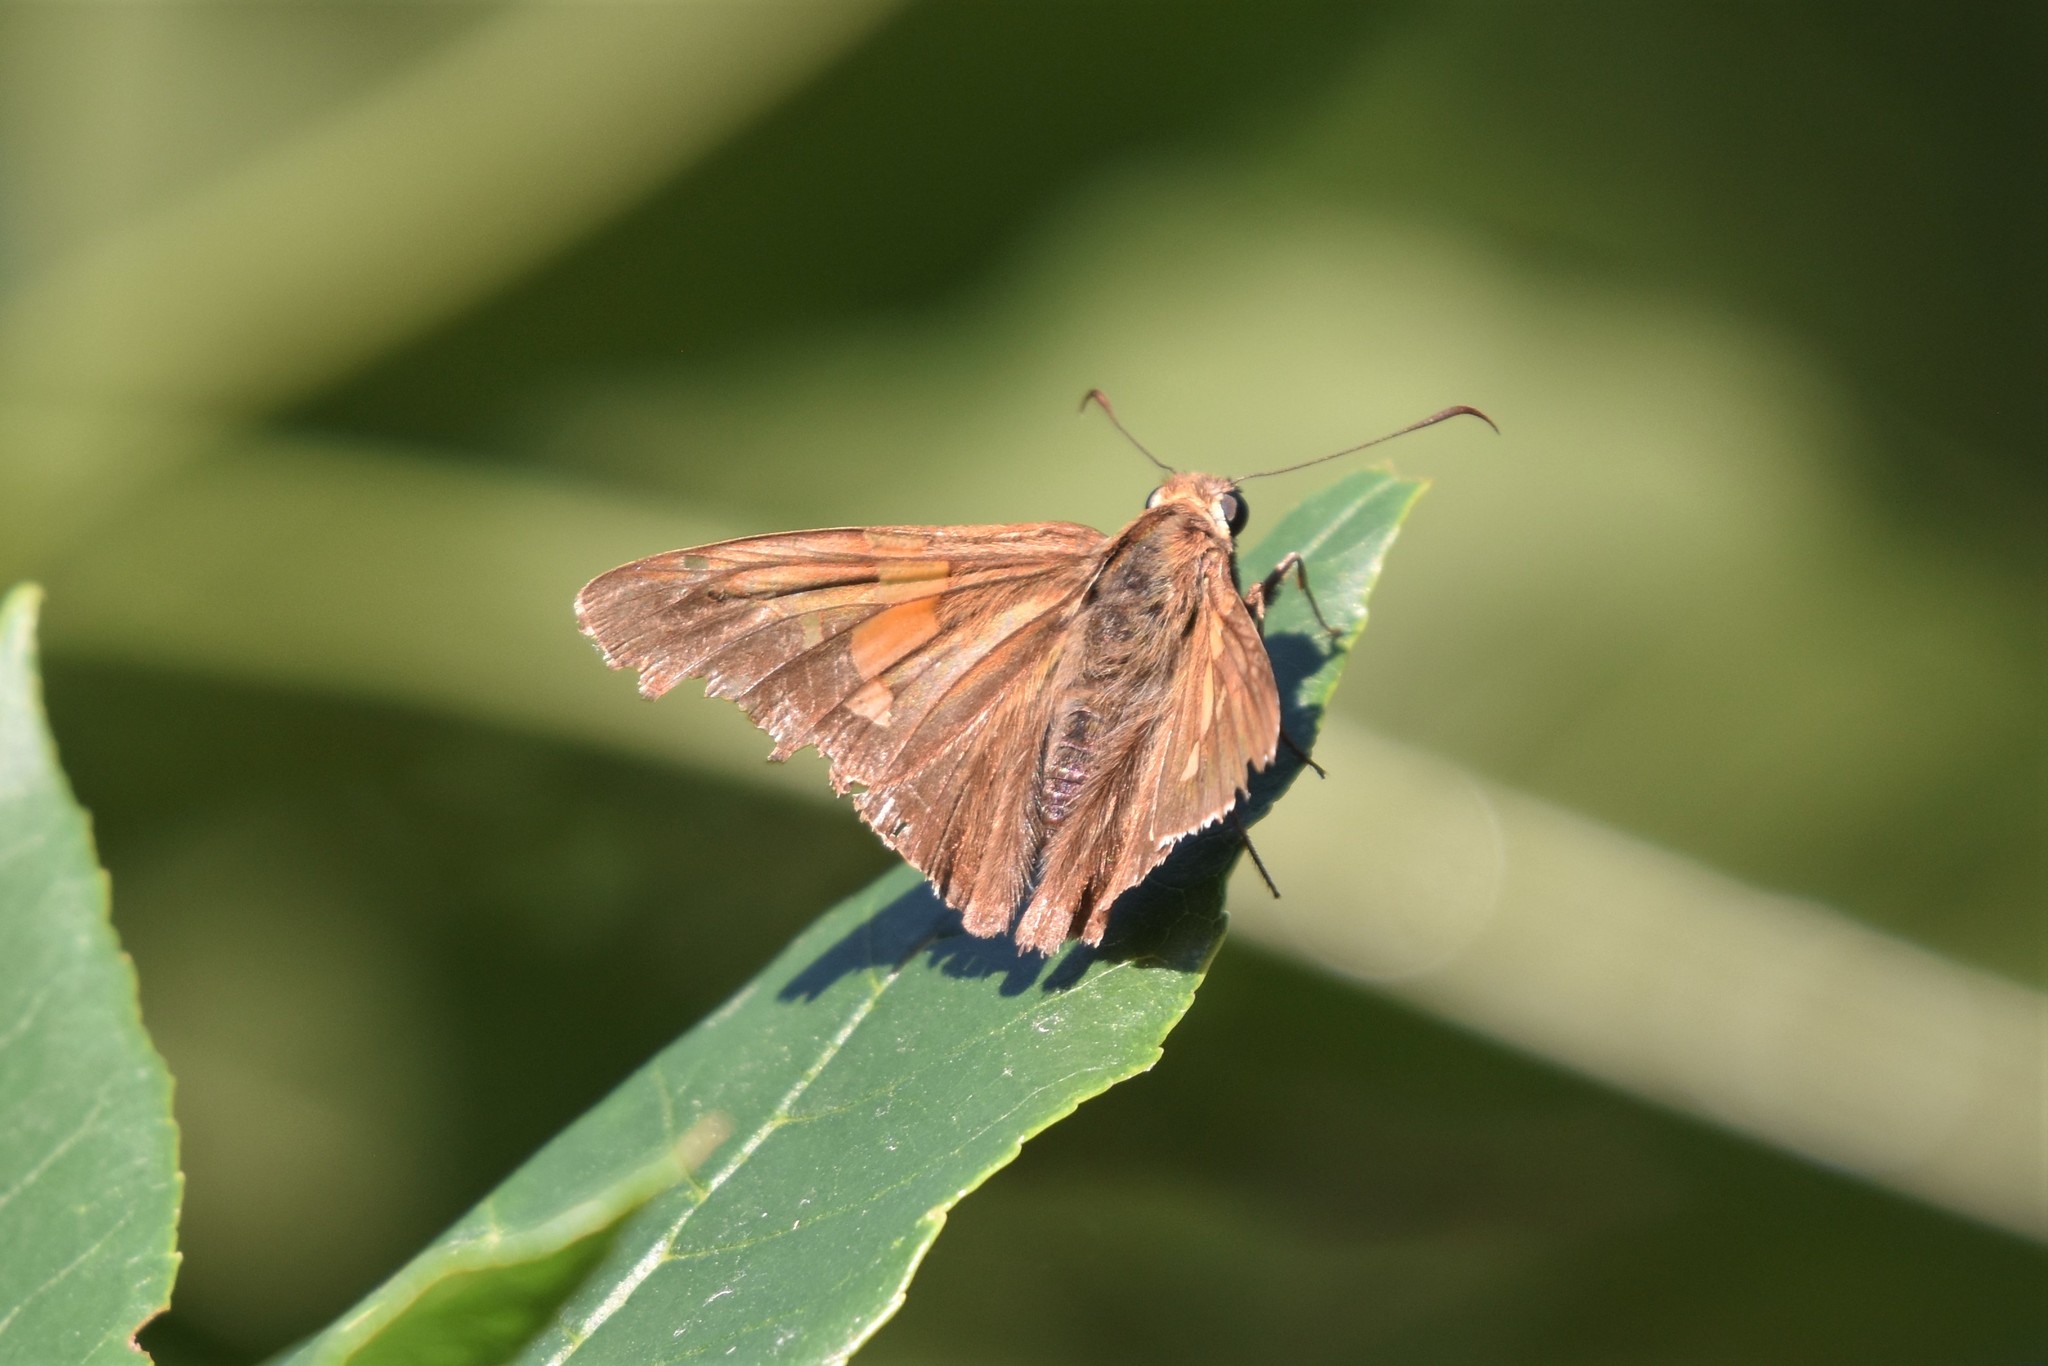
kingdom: Animalia
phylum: Arthropoda
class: Insecta
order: Lepidoptera
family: Hesperiidae
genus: Epargyreus
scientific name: Epargyreus clarus
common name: Silver-spotted skipper
